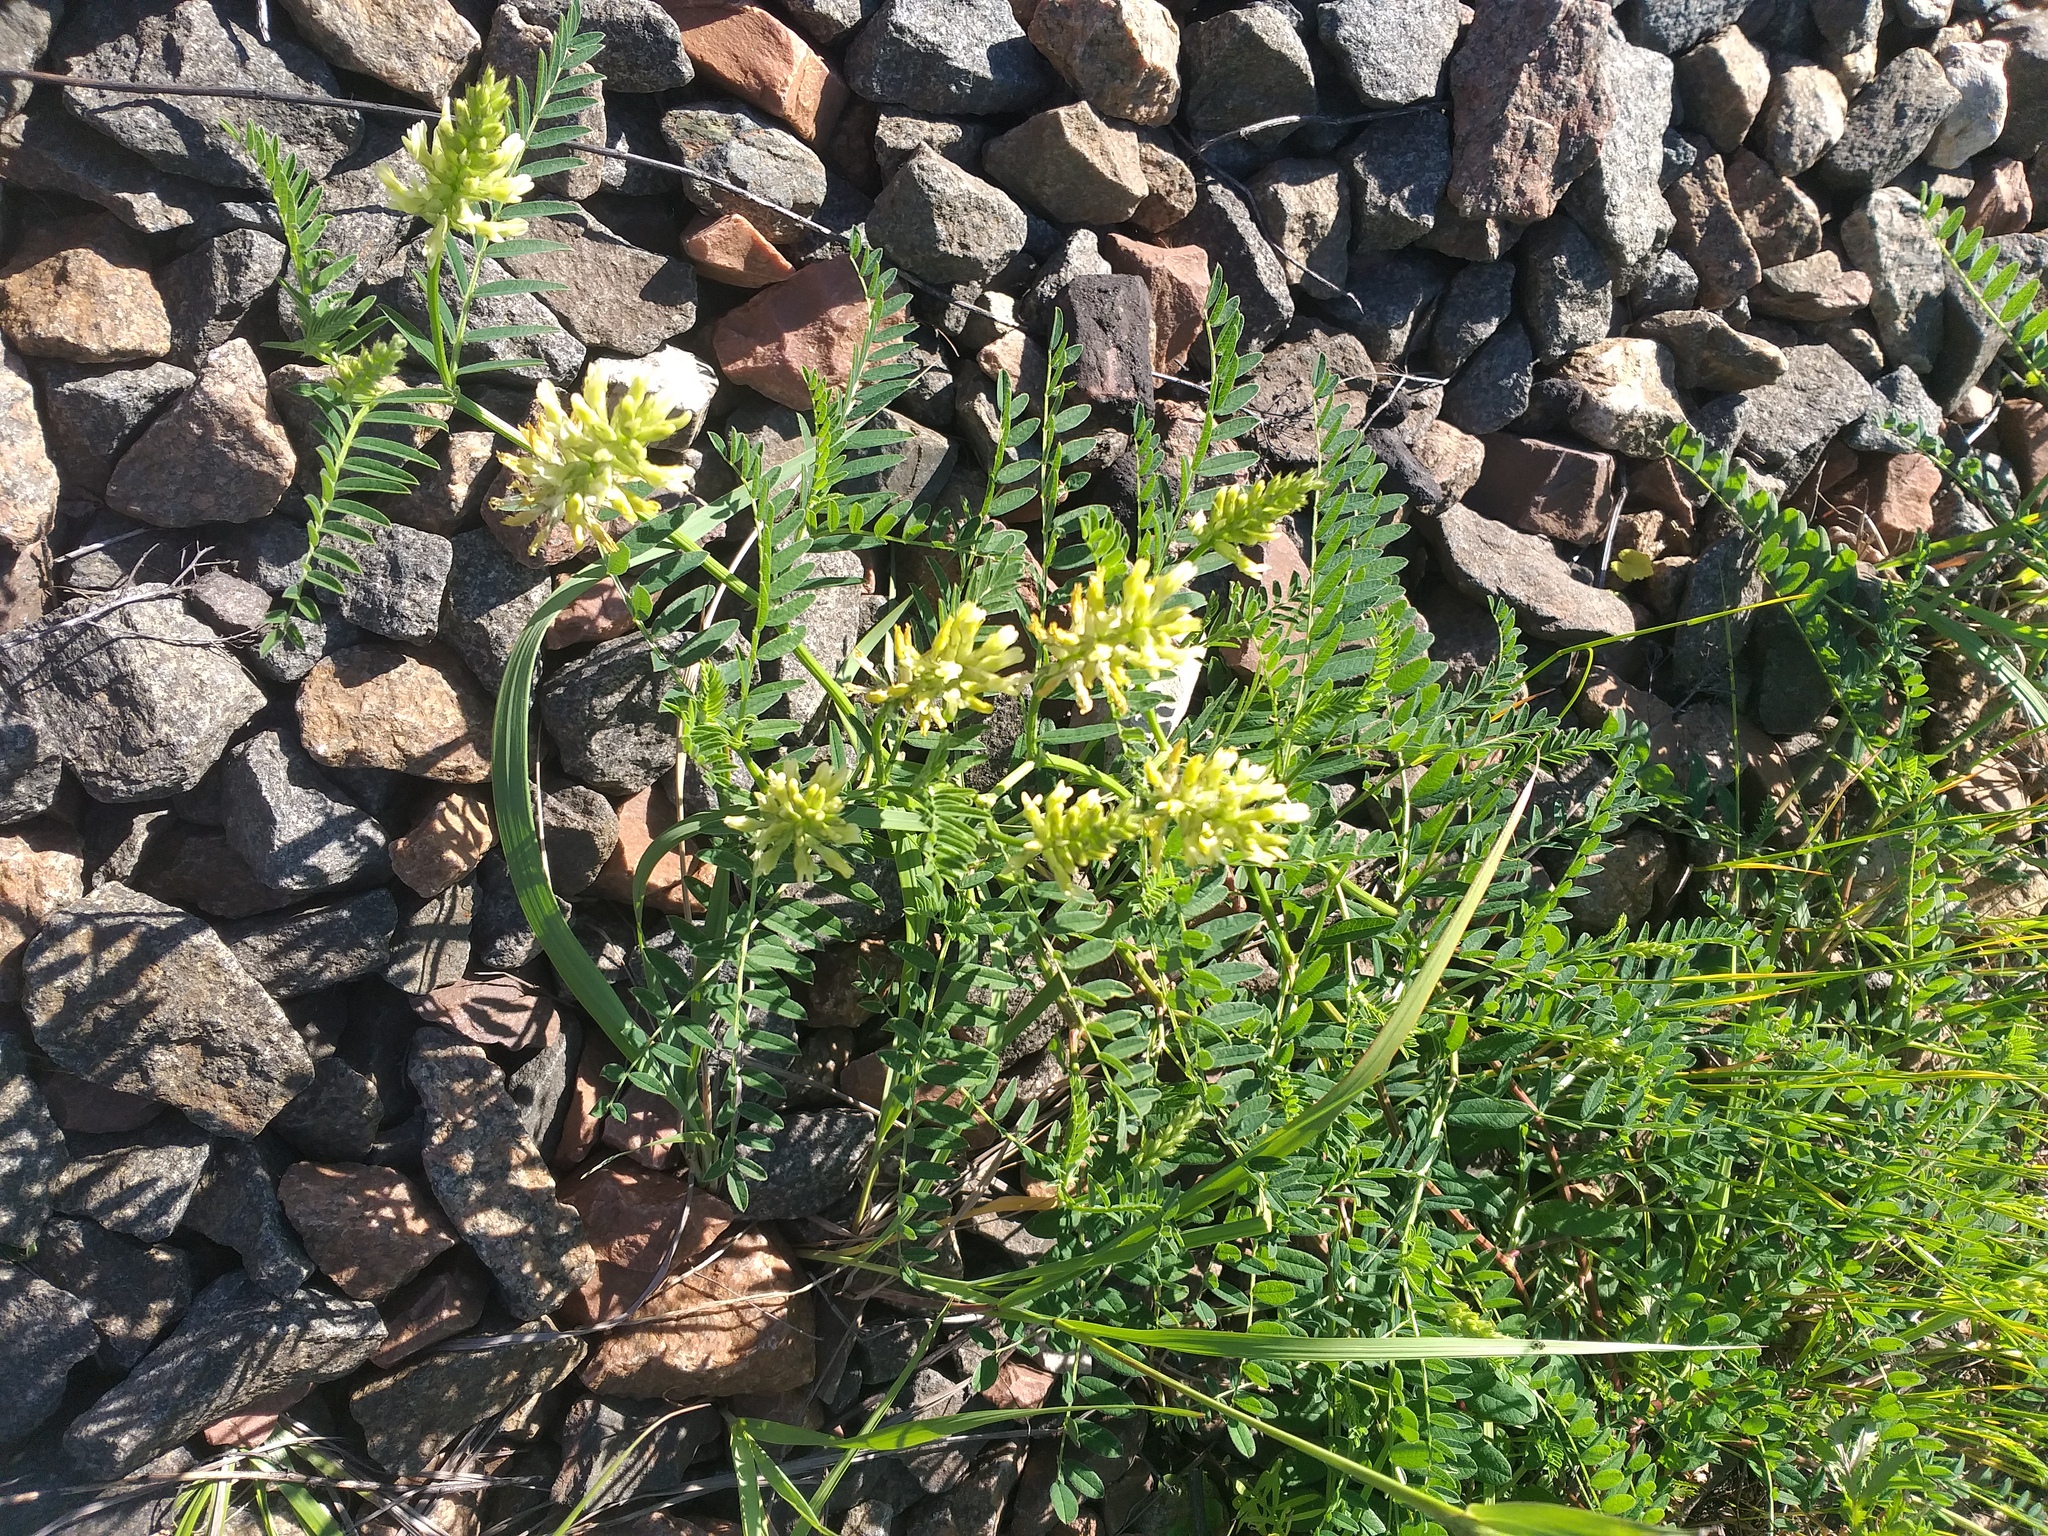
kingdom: Plantae
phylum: Tracheophyta
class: Magnoliopsida
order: Fabales
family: Fabaceae
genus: Astragalus
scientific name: Astragalus cicer
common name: Chick-pea milk-vetch
